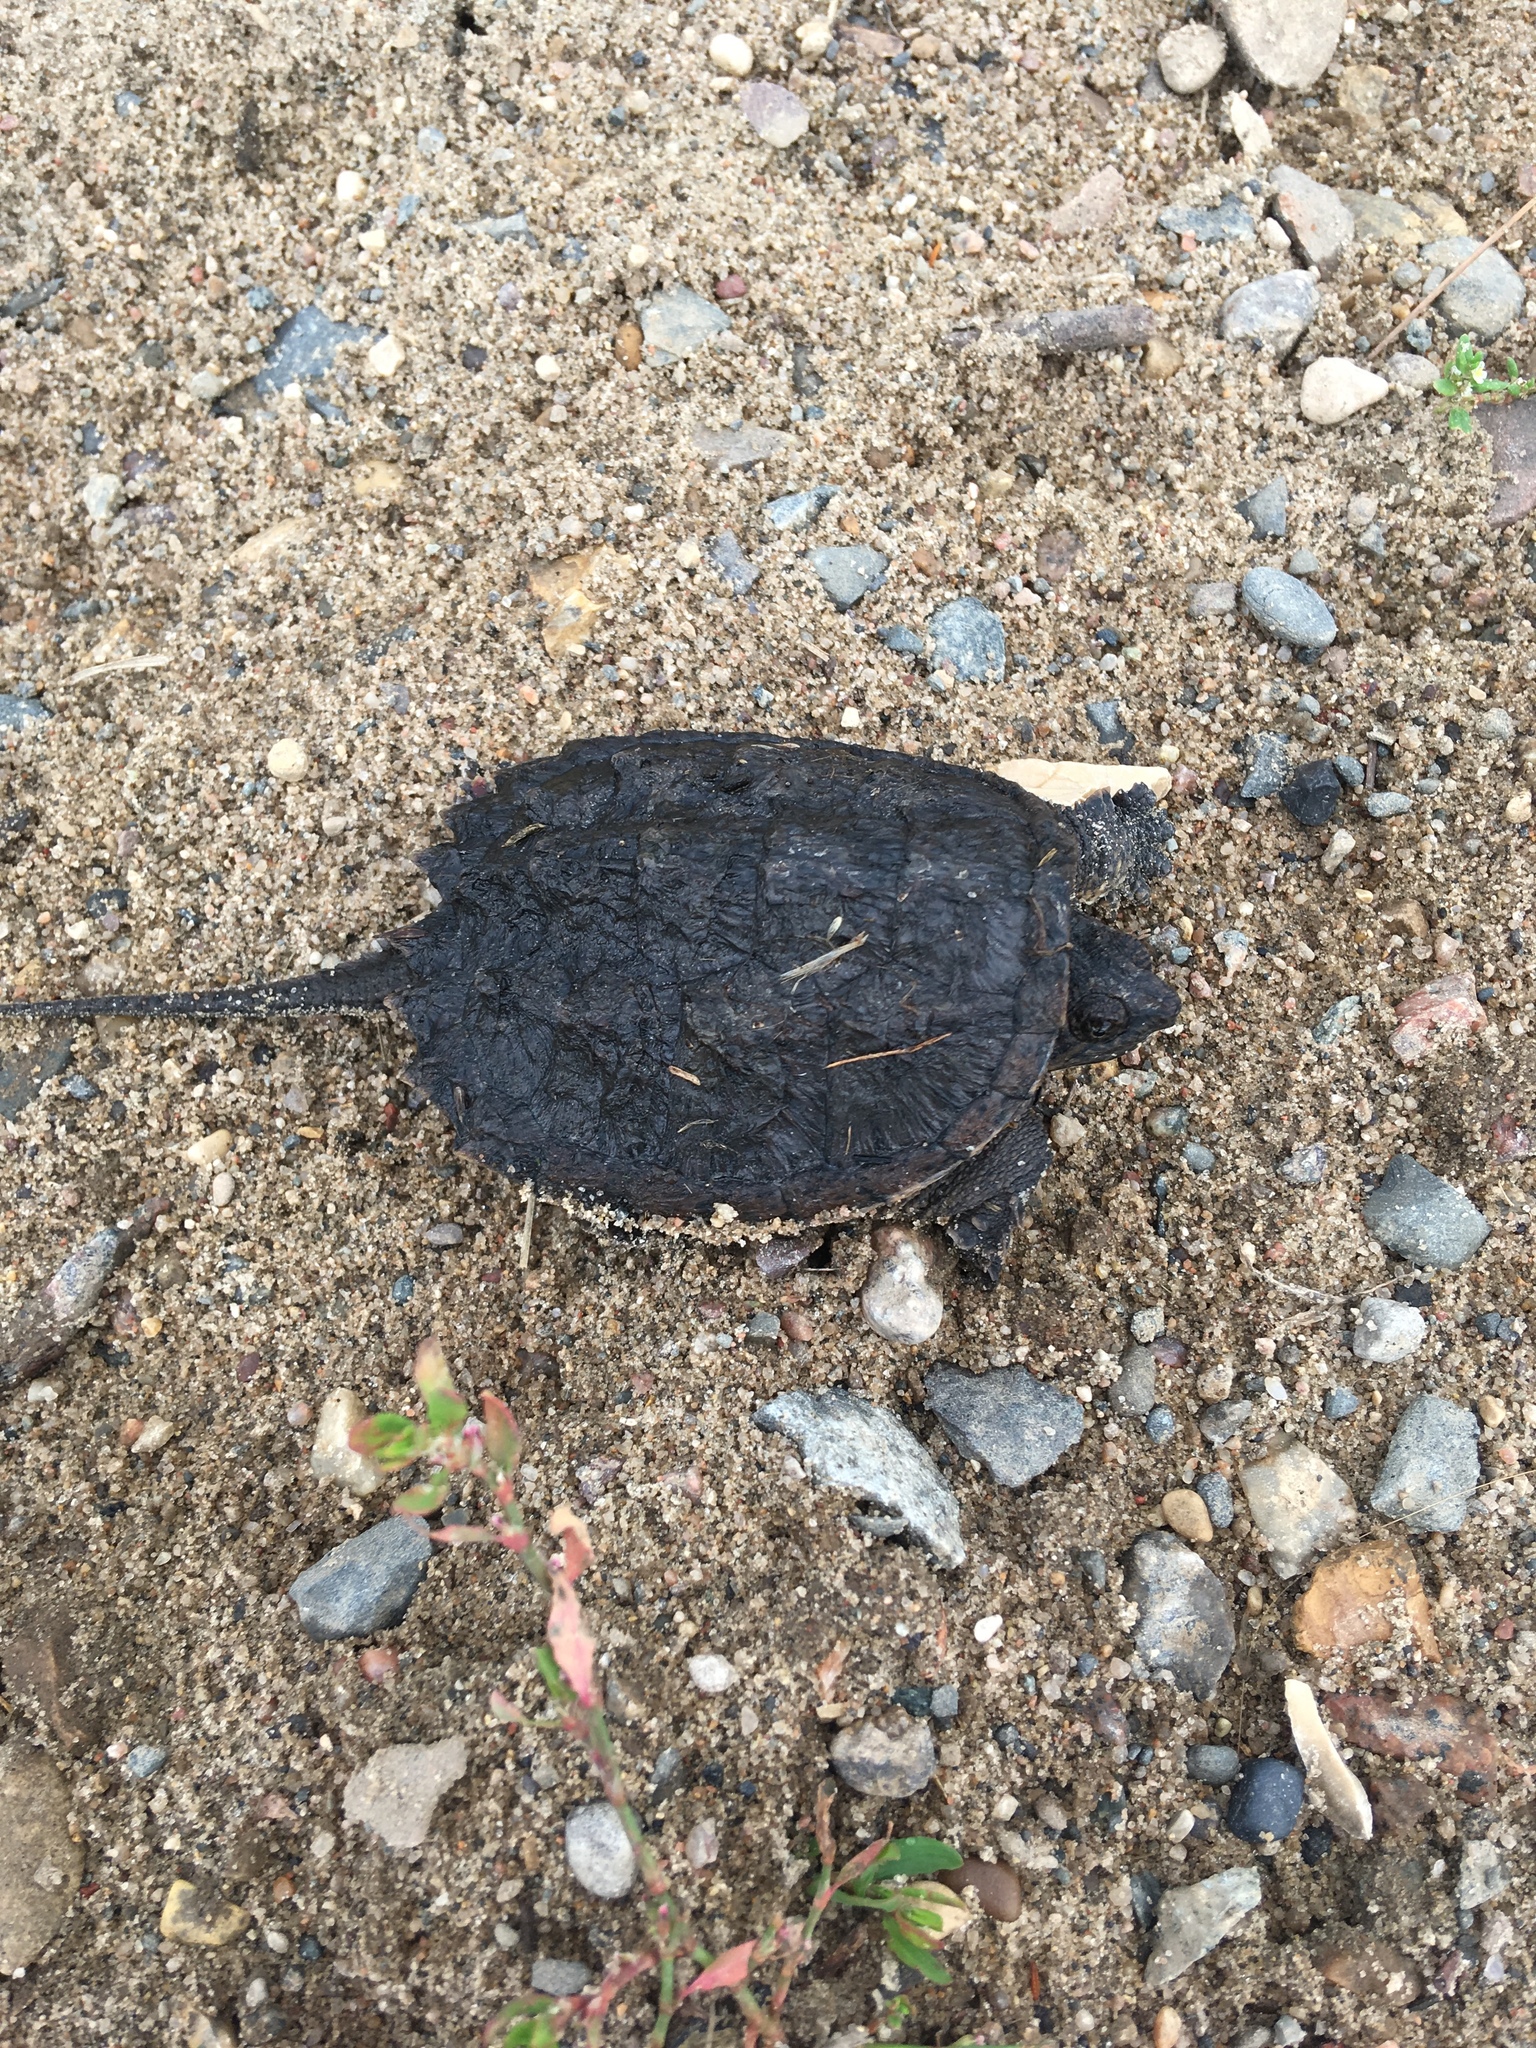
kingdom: Animalia
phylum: Chordata
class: Testudines
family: Chelydridae
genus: Chelydra
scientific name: Chelydra serpentina
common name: Common snapping turtle
